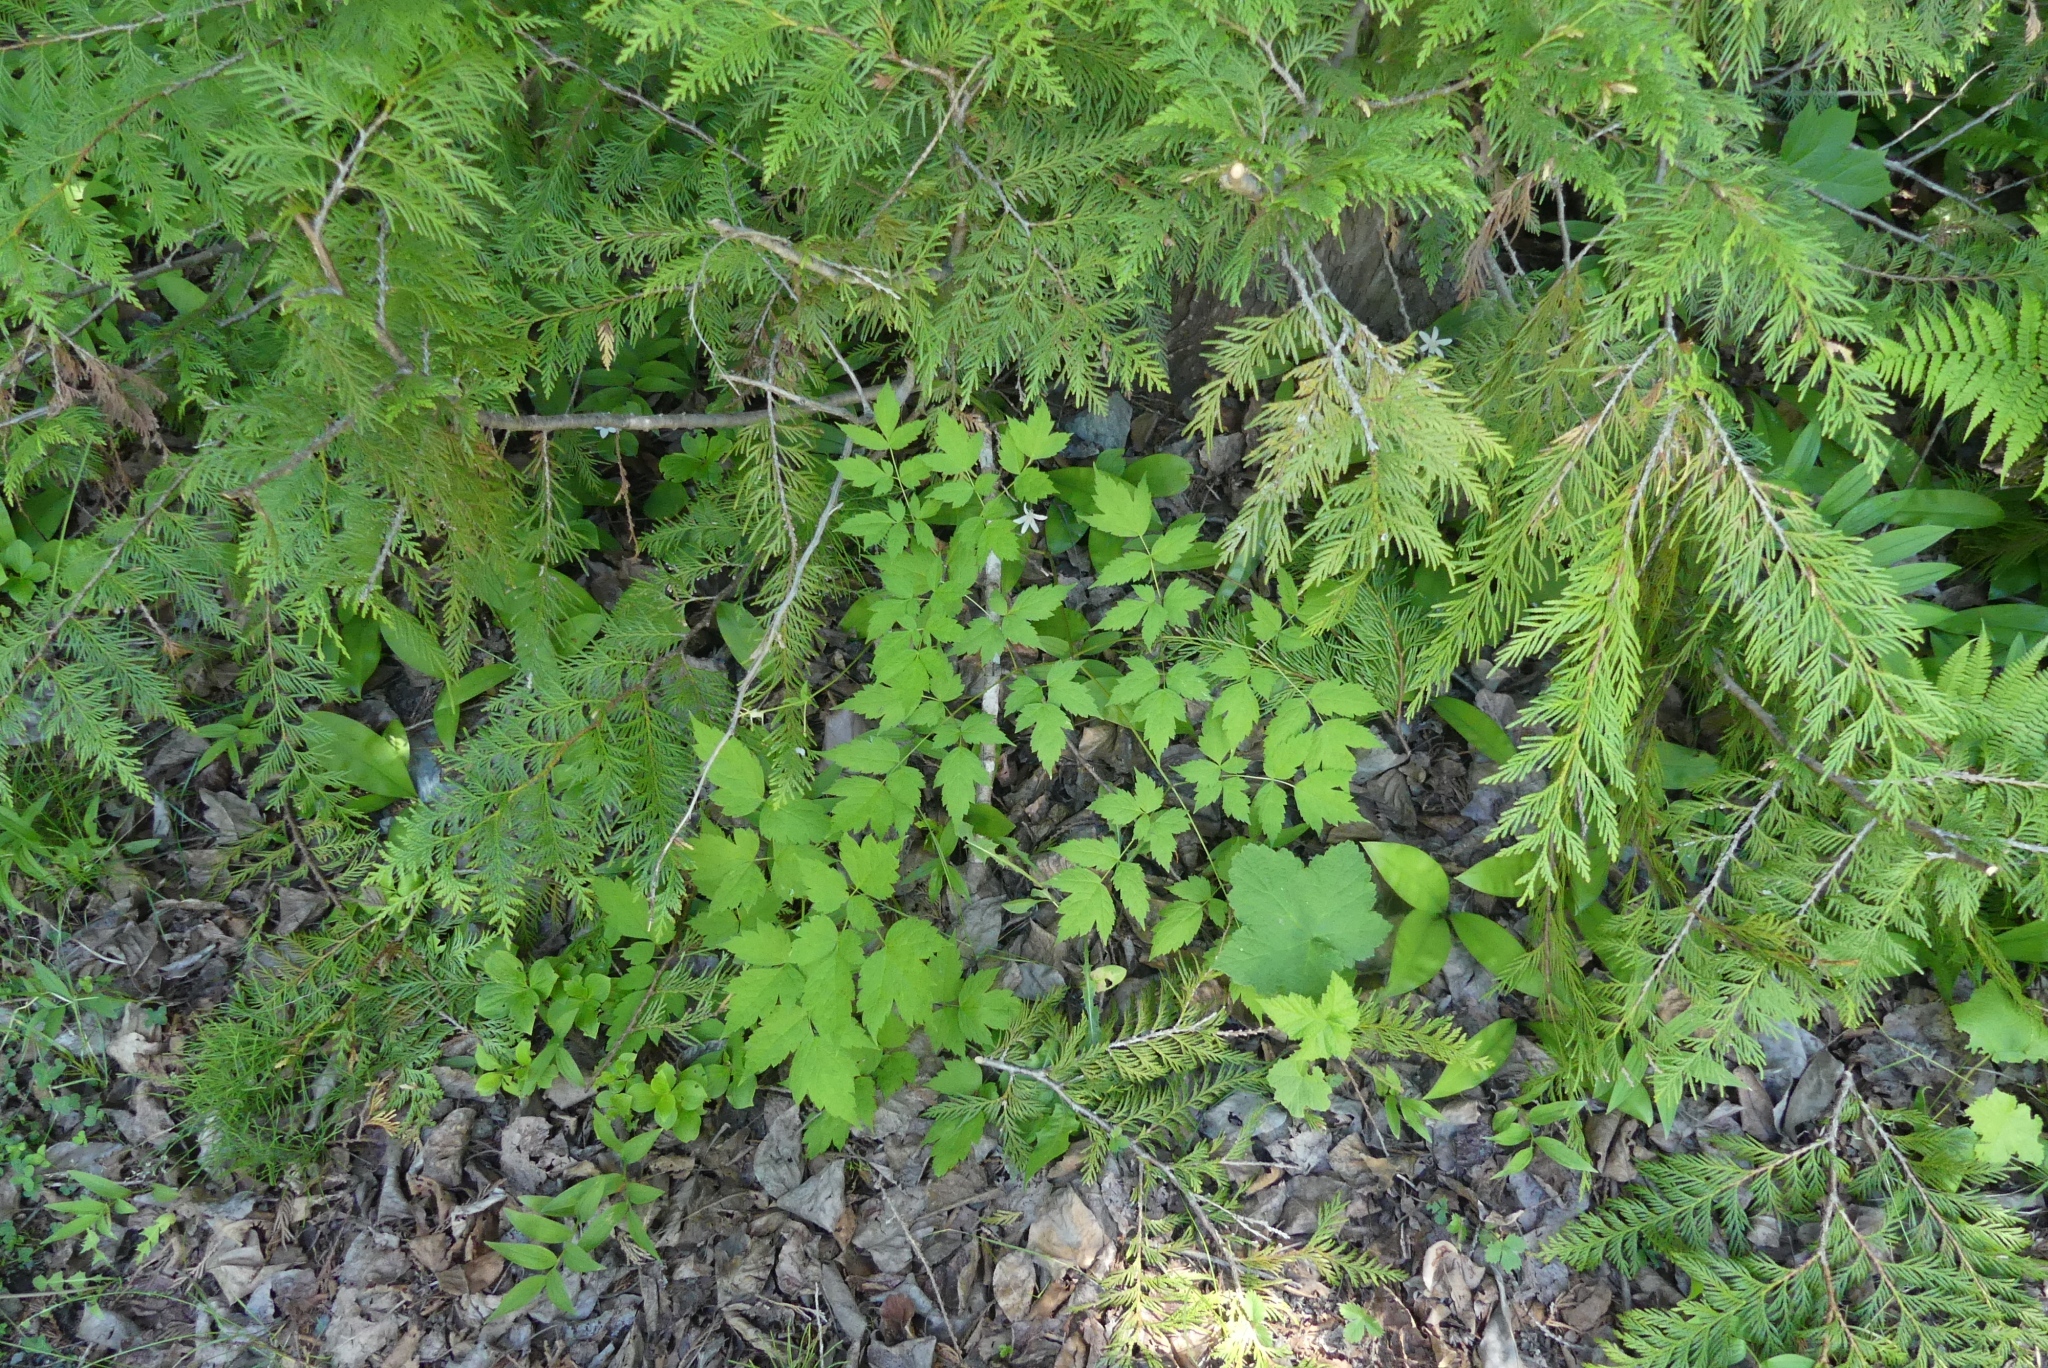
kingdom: Plantae
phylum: Tracheophyta
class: Magnoliopsida
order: Ranunculales
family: Ranunculaceae
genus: Actaea
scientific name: Actaea rubra
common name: Red baneberry
